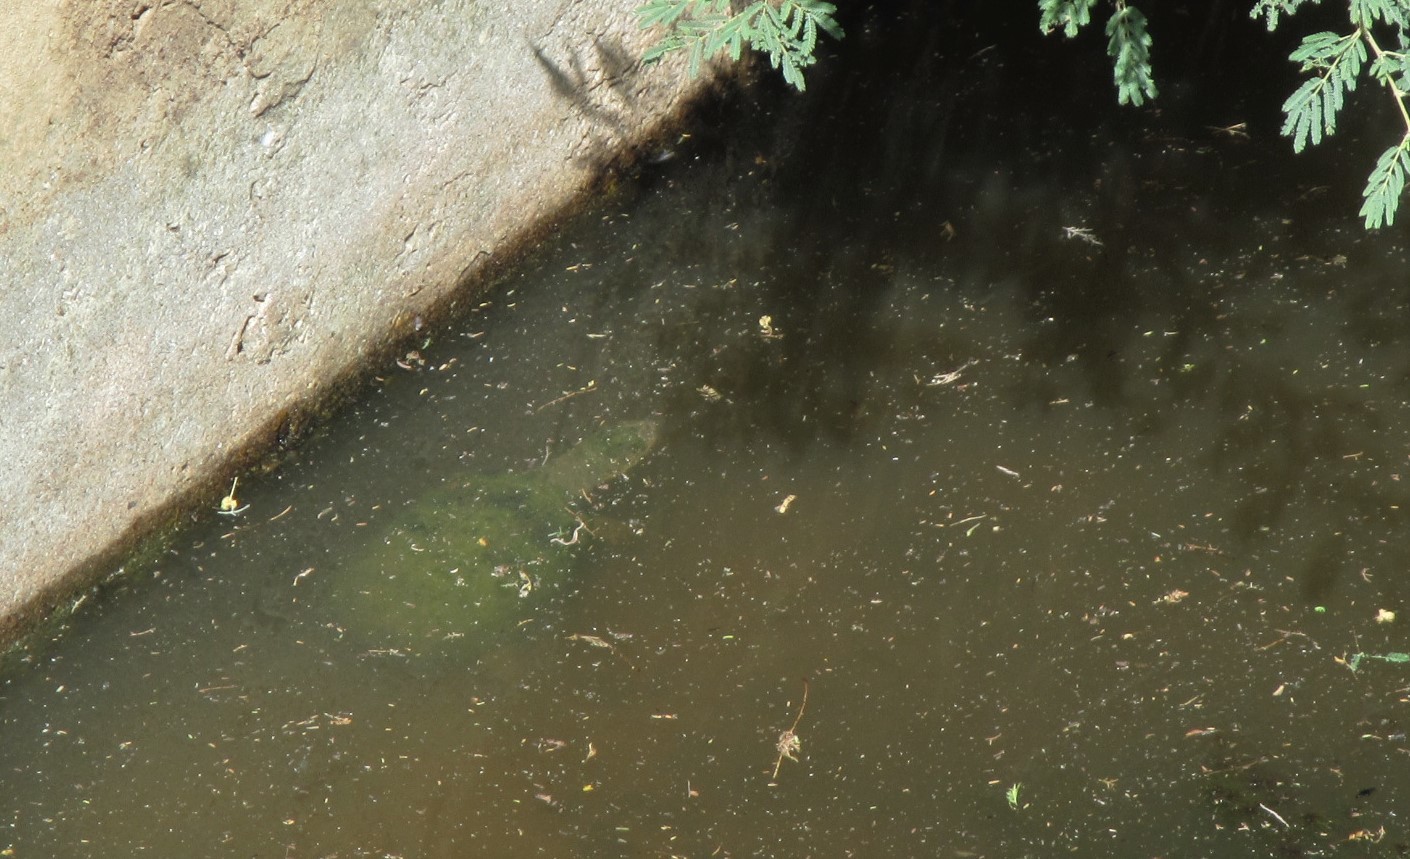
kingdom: Animalia
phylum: Chordata
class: Testudines
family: Pelomedusidae
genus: Pelomedusa
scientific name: Pelomedusa olivacea
